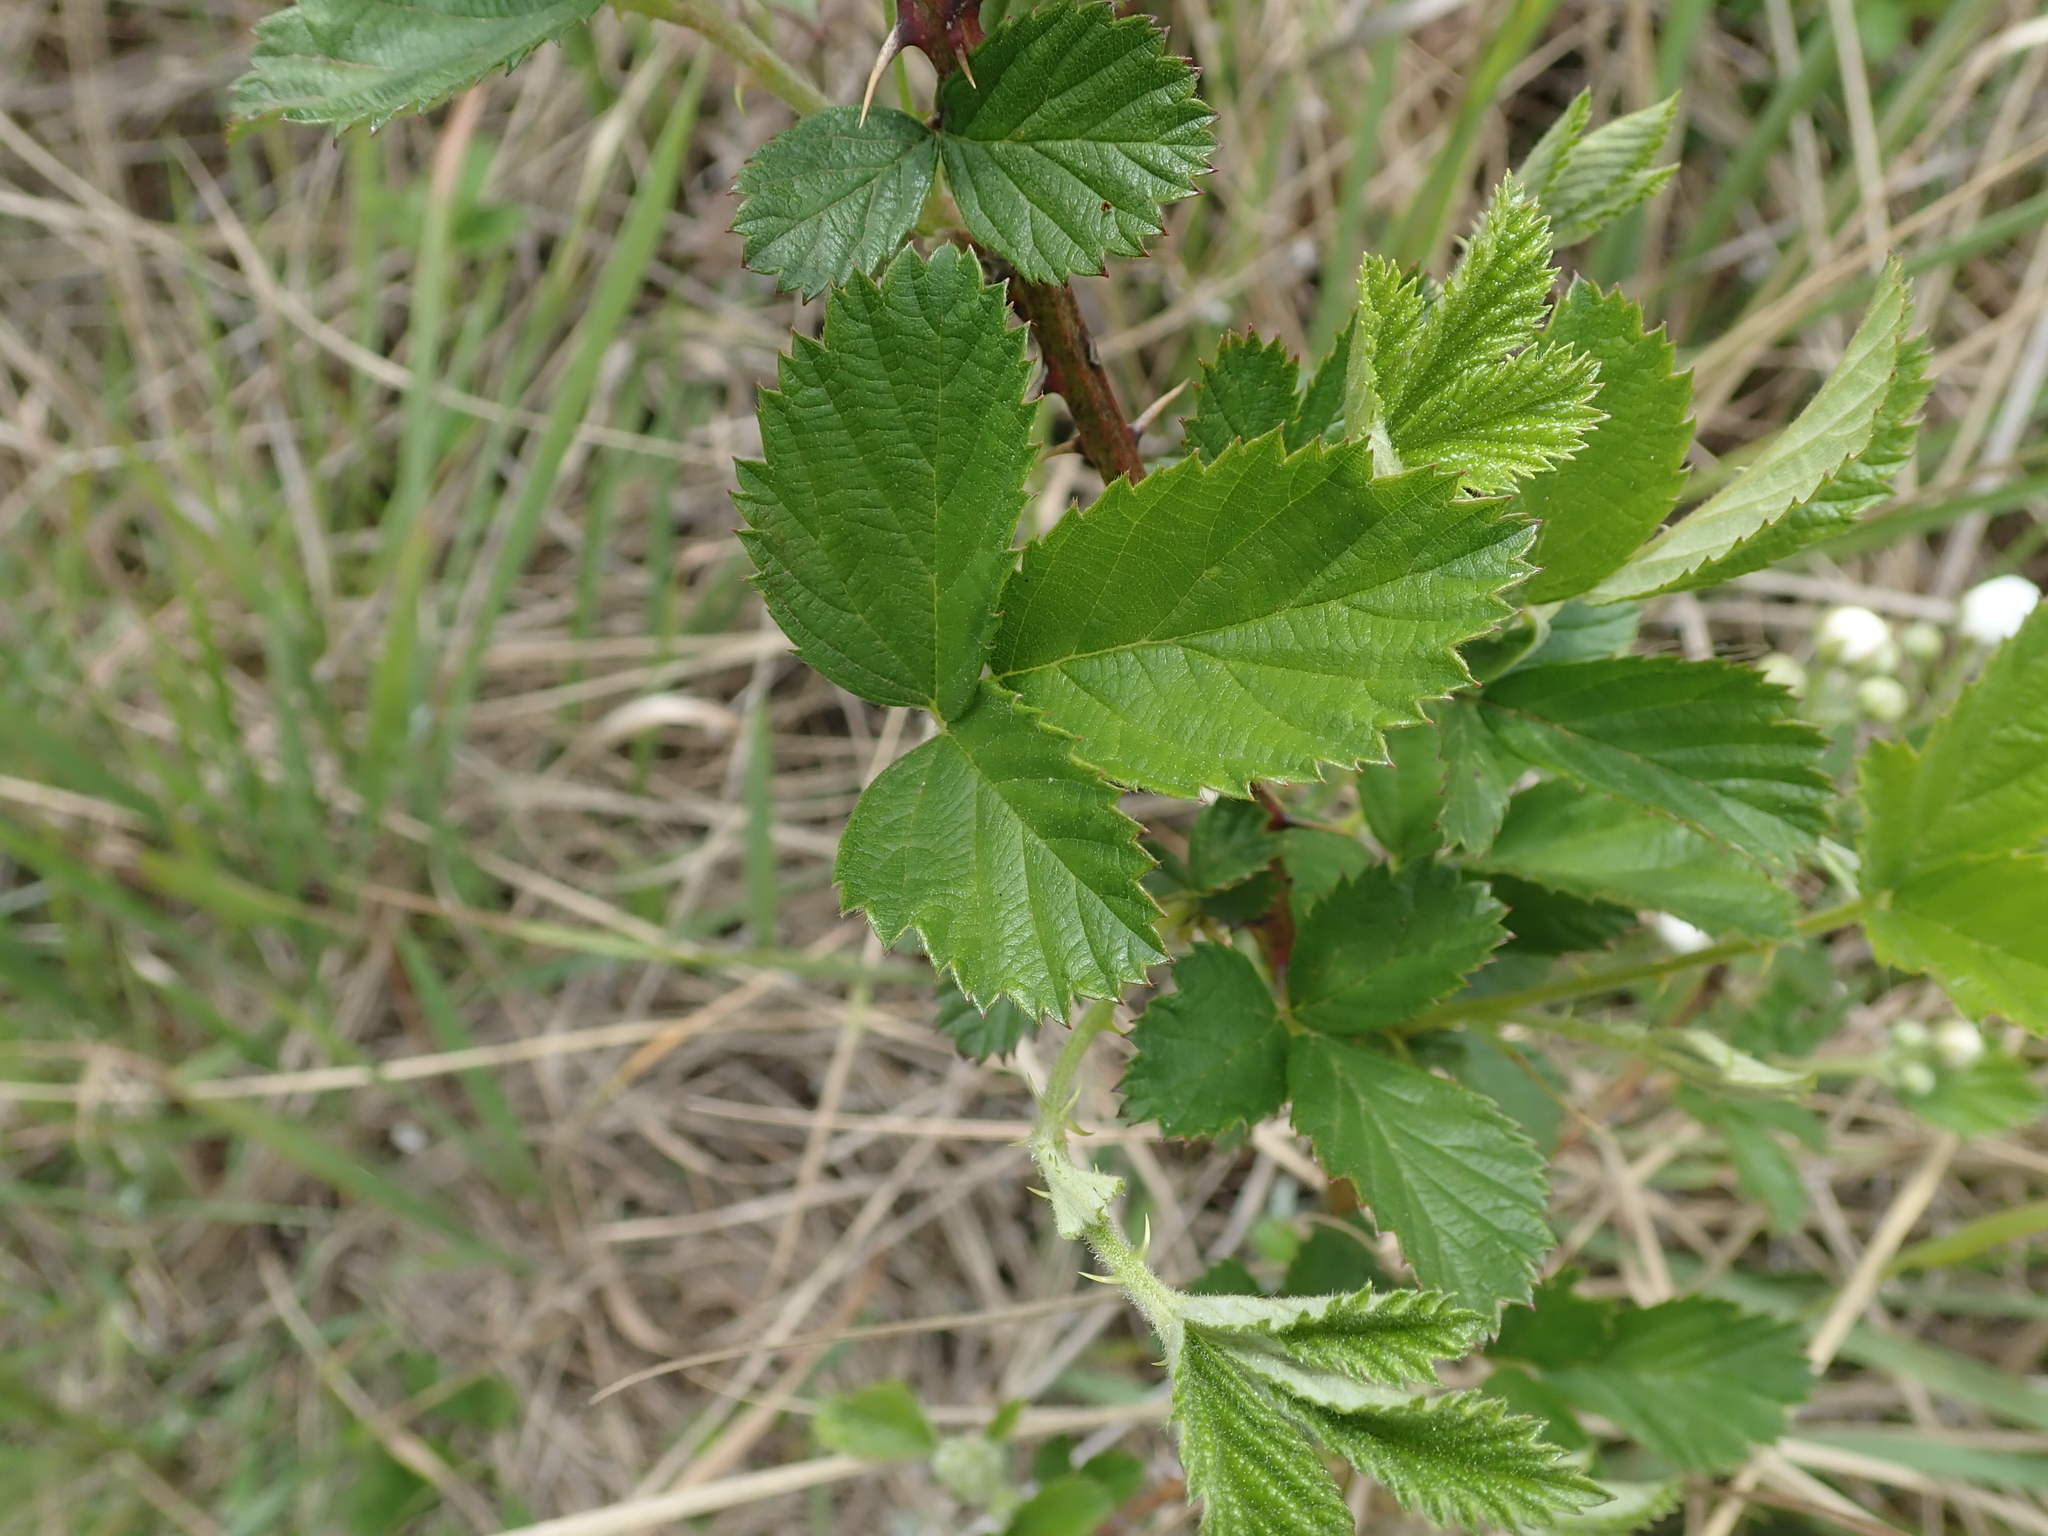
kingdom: Plantae
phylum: Tracheophyta
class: Magnoliopsida
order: Rosales
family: Rosaceae
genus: Rubus
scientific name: Rubus cuneifolius
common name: American bramble
